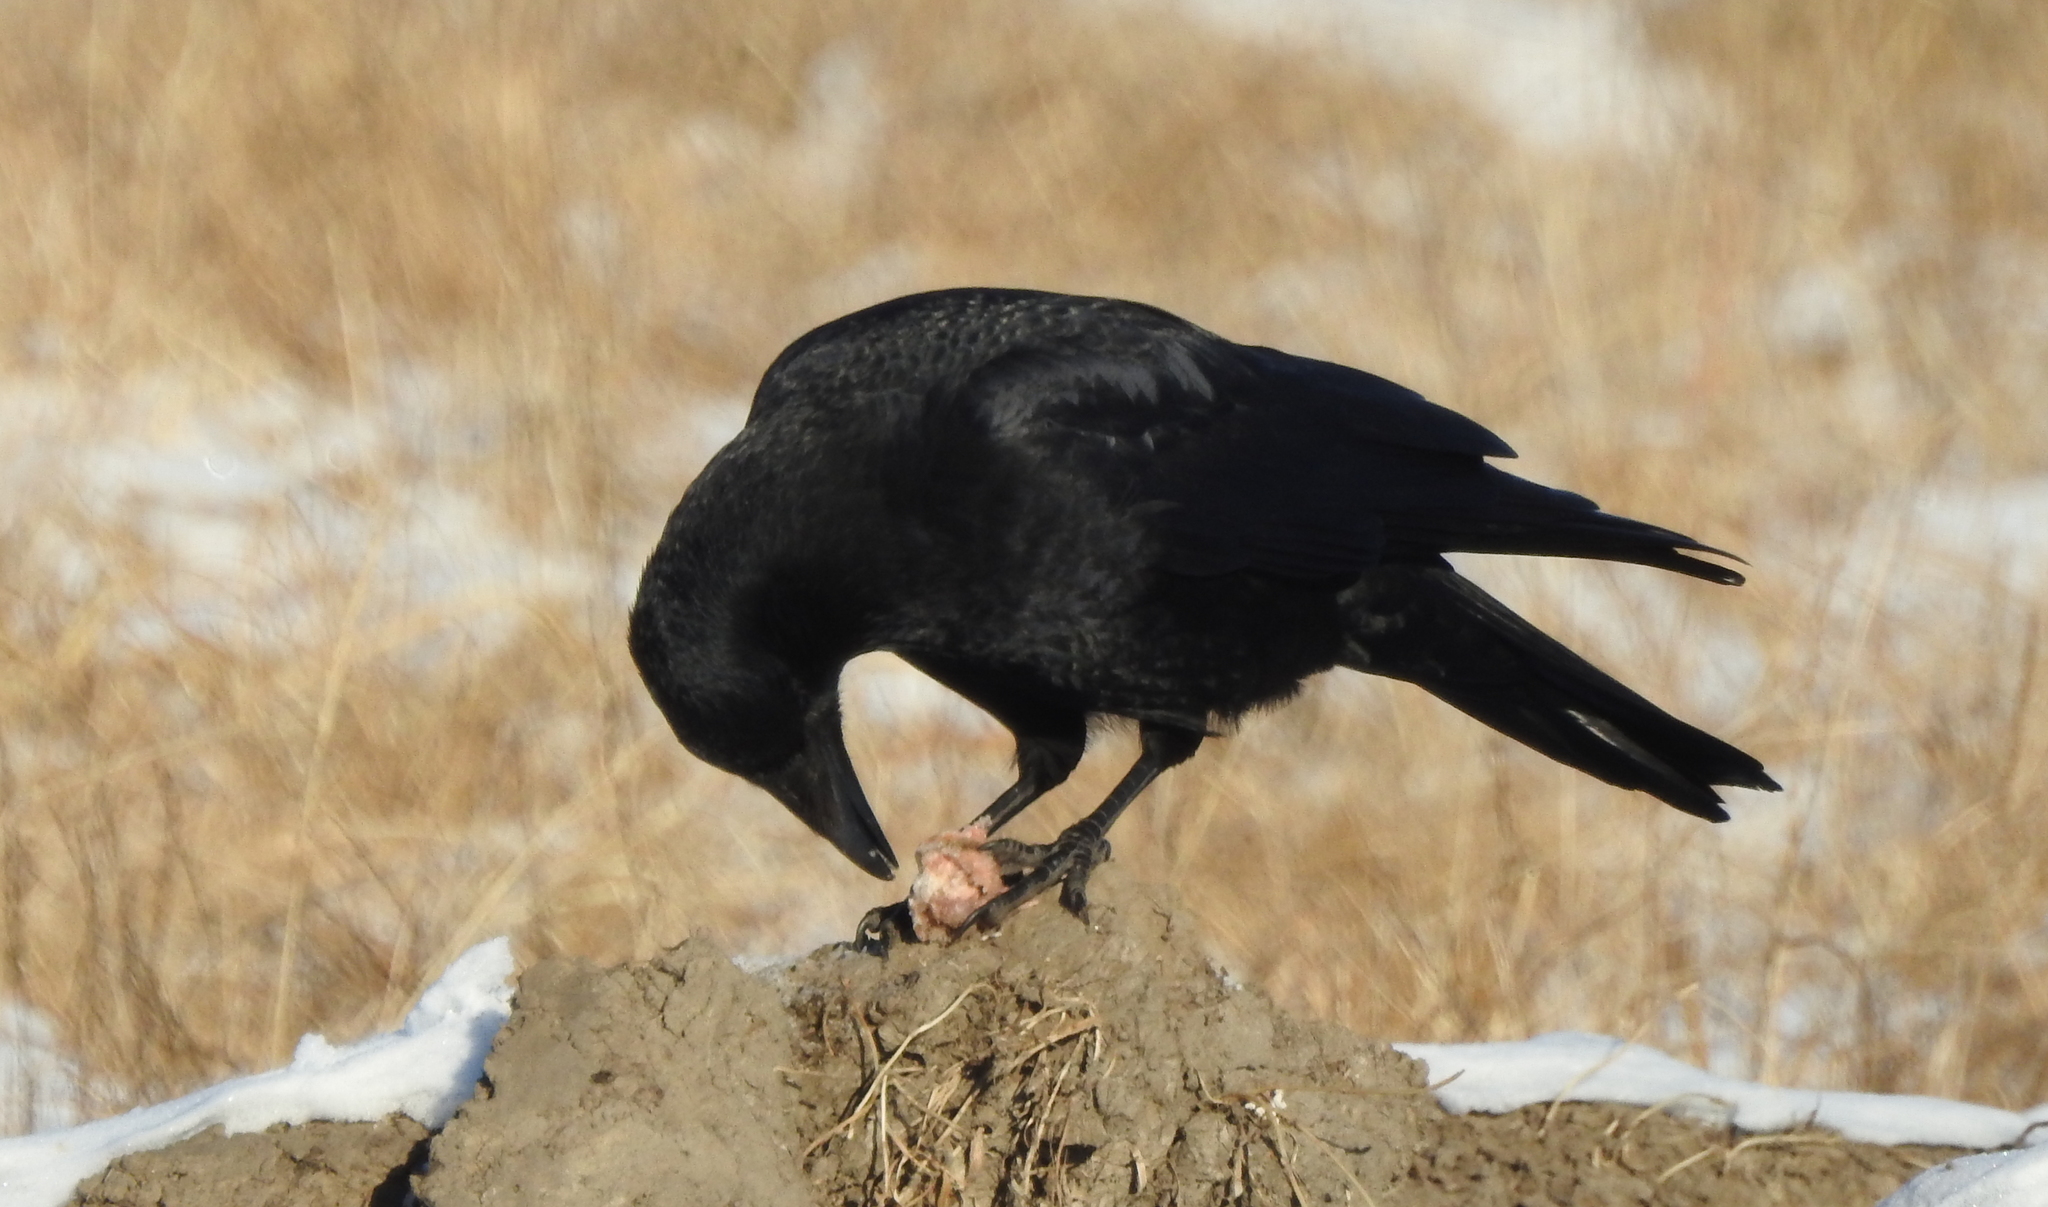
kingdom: Animalia
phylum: Chordata
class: Aves
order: Passeriformes
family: Corvidae
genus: Corvus
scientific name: Corvus corone
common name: Carrion crow
